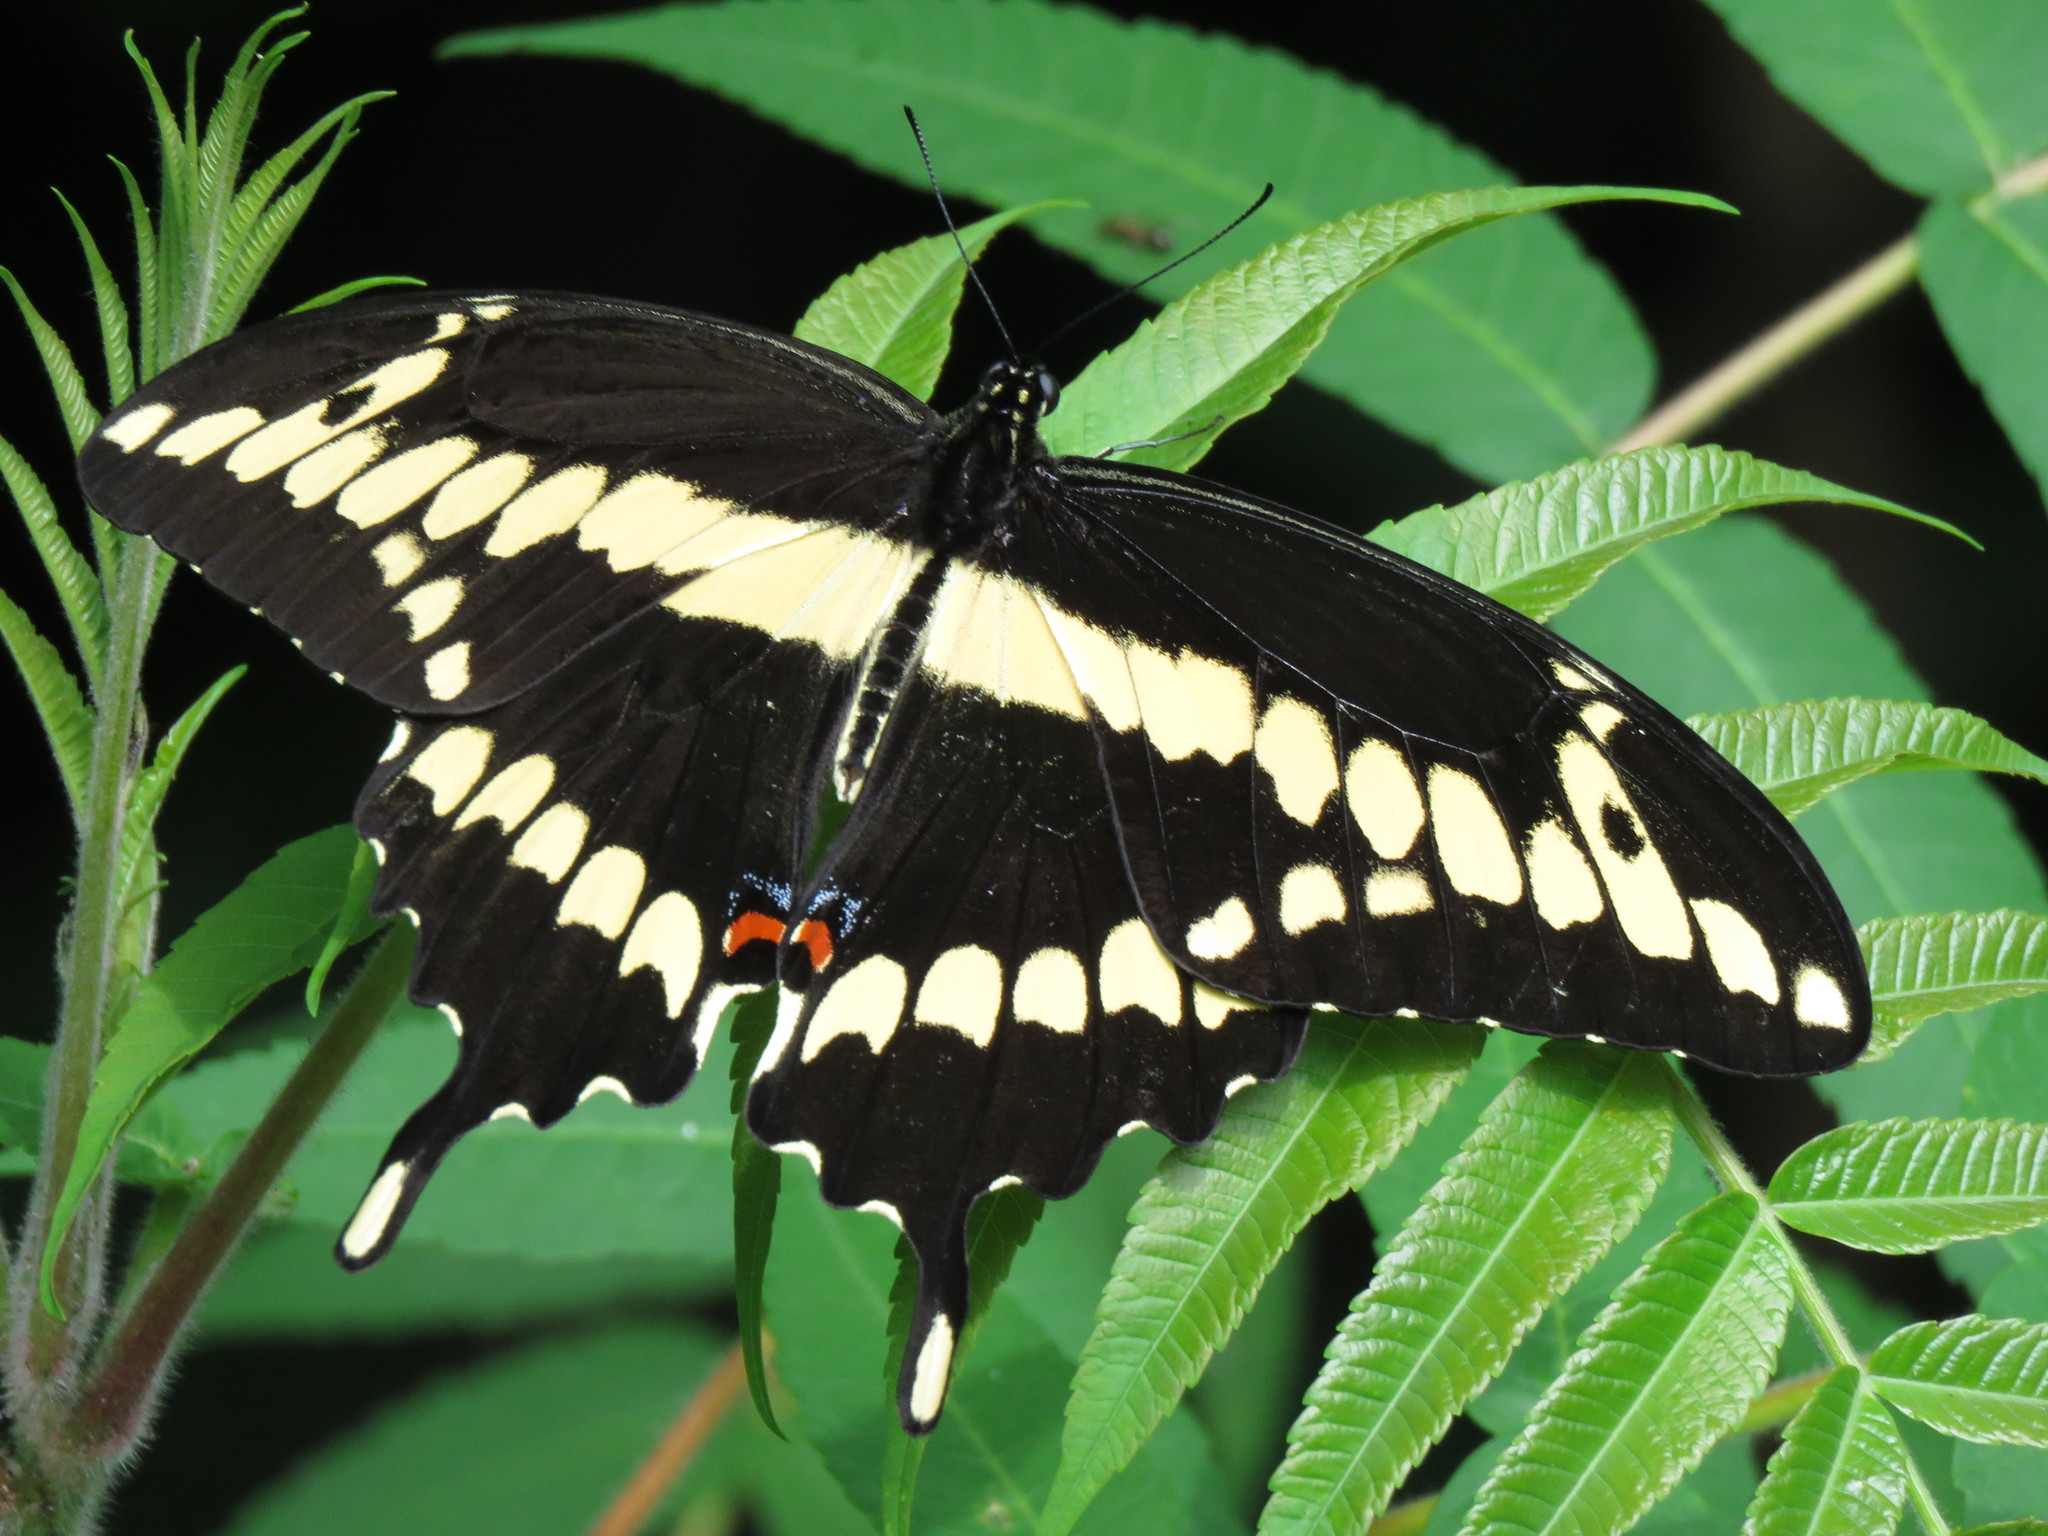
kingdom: Animalia
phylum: Arthropoda
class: Insecta
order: Lepidoptera
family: Papilionidae
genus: Papilio
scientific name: Papilio cresphontes
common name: Giant swallowtail
